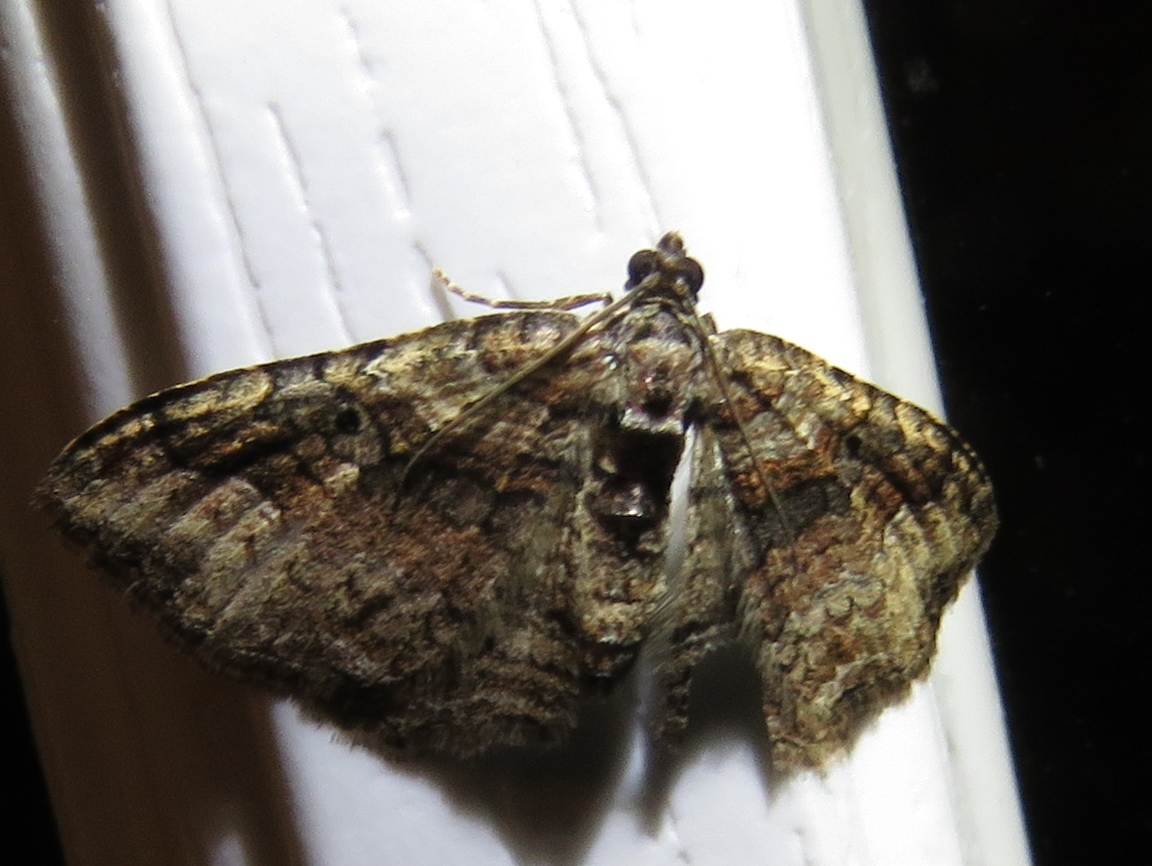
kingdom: Animalia
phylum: Arthropoda
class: Insecta
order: Lepidoptera
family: Geometridae
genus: Costaconvexa
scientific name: Costaconvexa centrostrigaria
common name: Bent-line carpet
